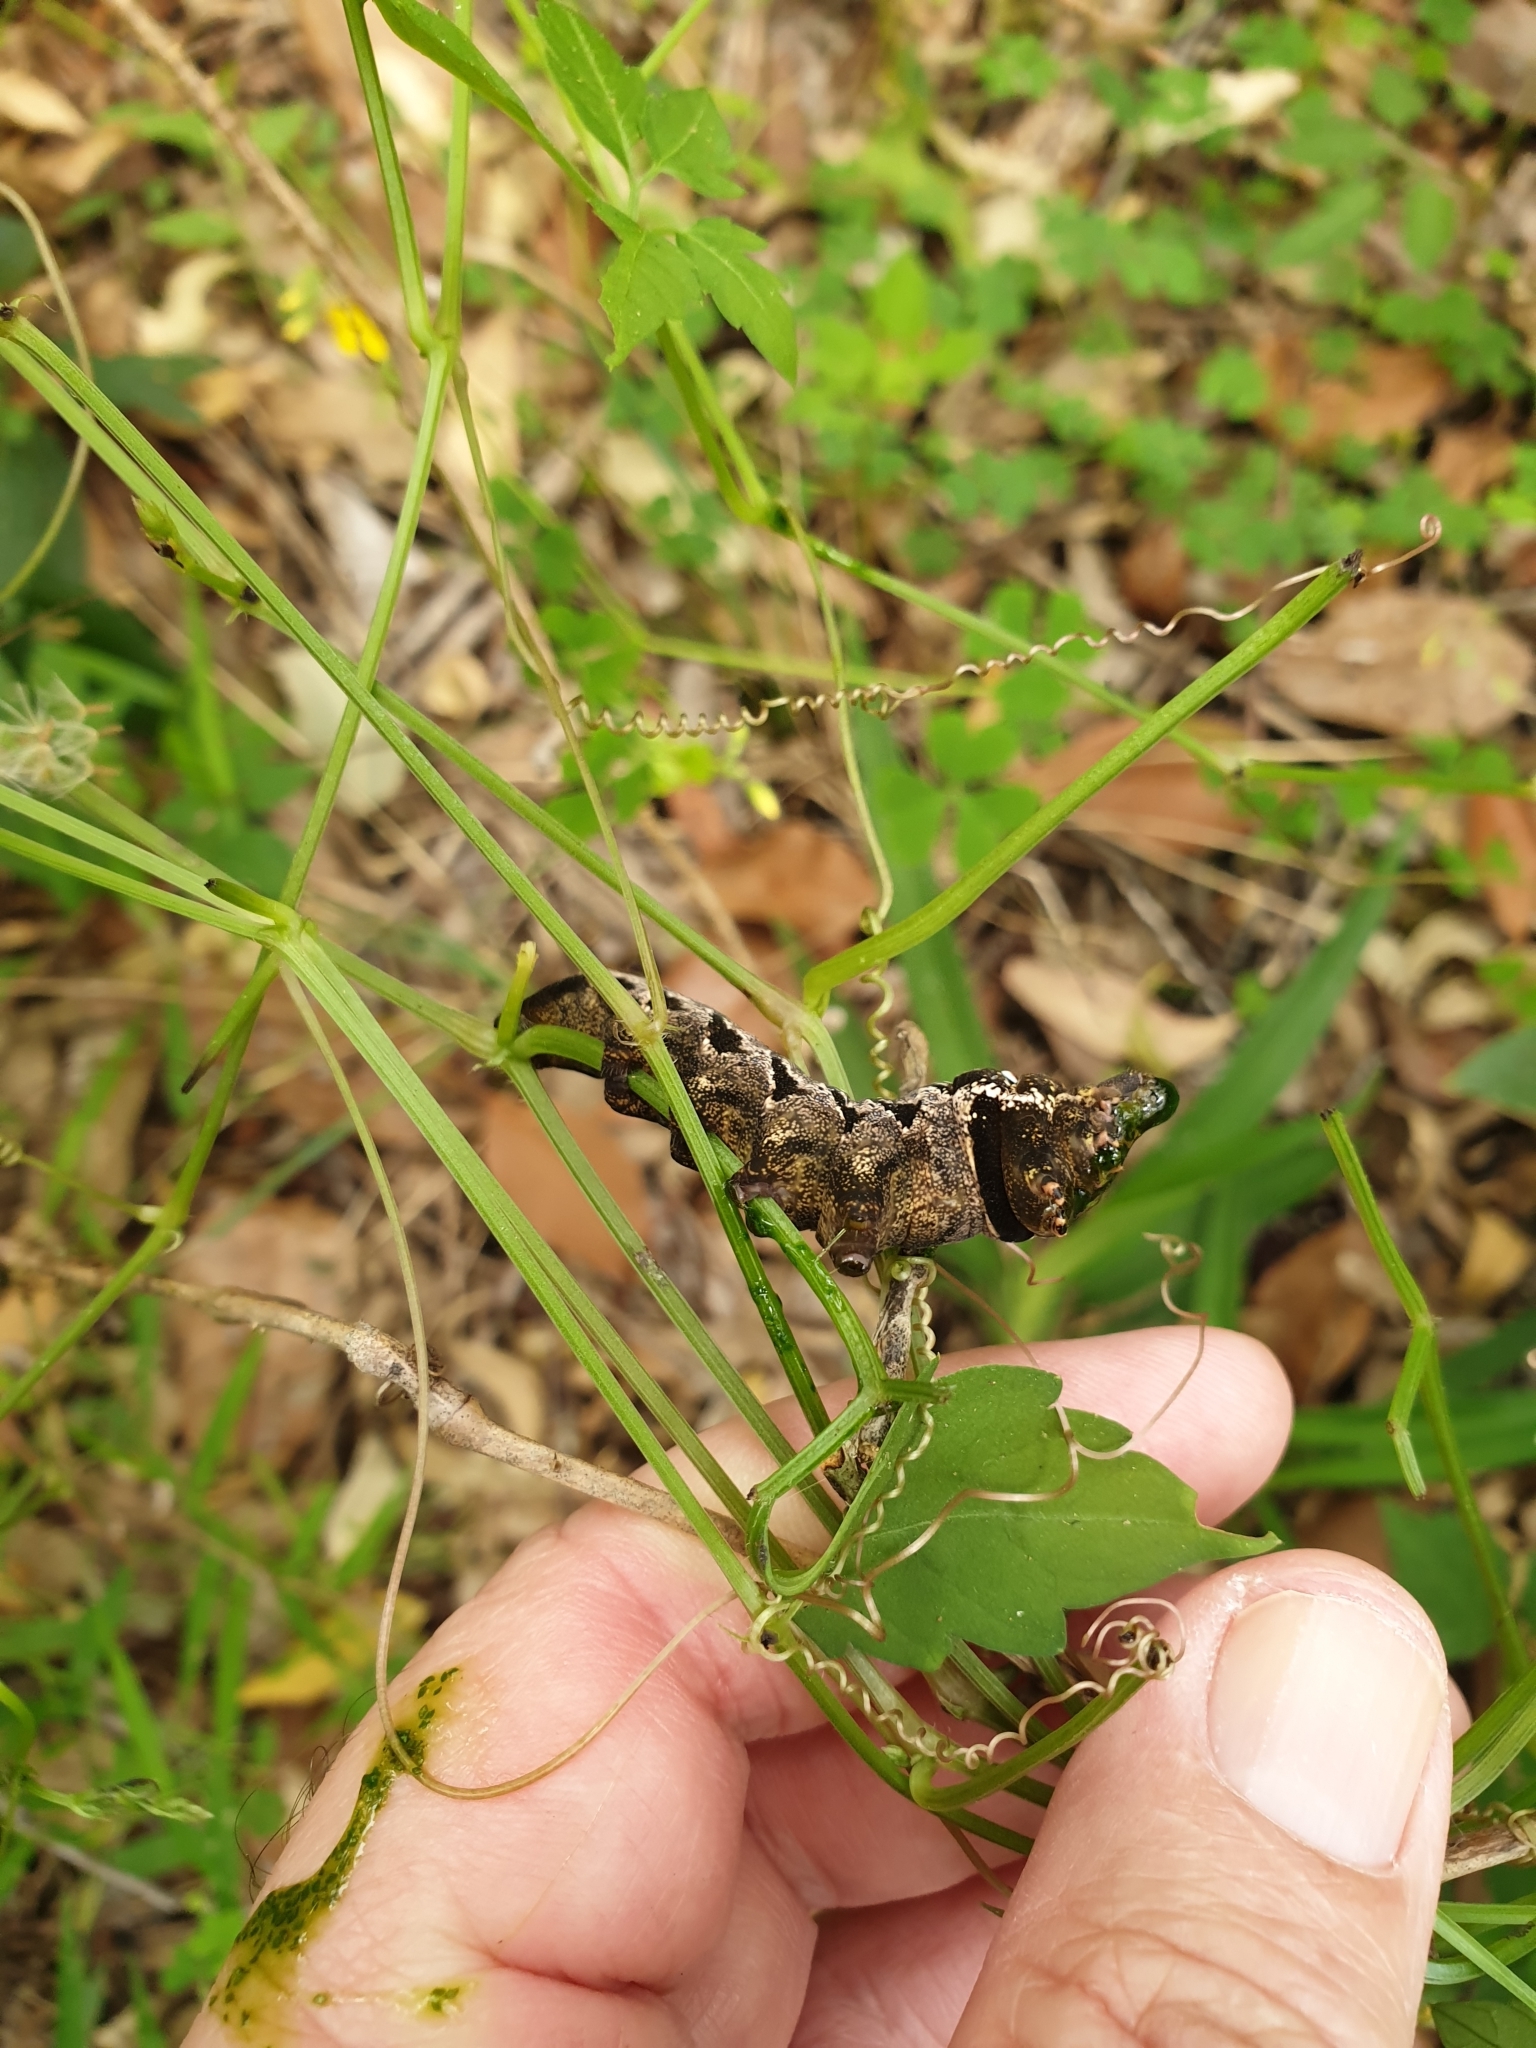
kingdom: Animalia
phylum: Arthropoda
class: Insecta
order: Lepidoptera
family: Sphingidae
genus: Theretra
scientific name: Theretra latreillii
